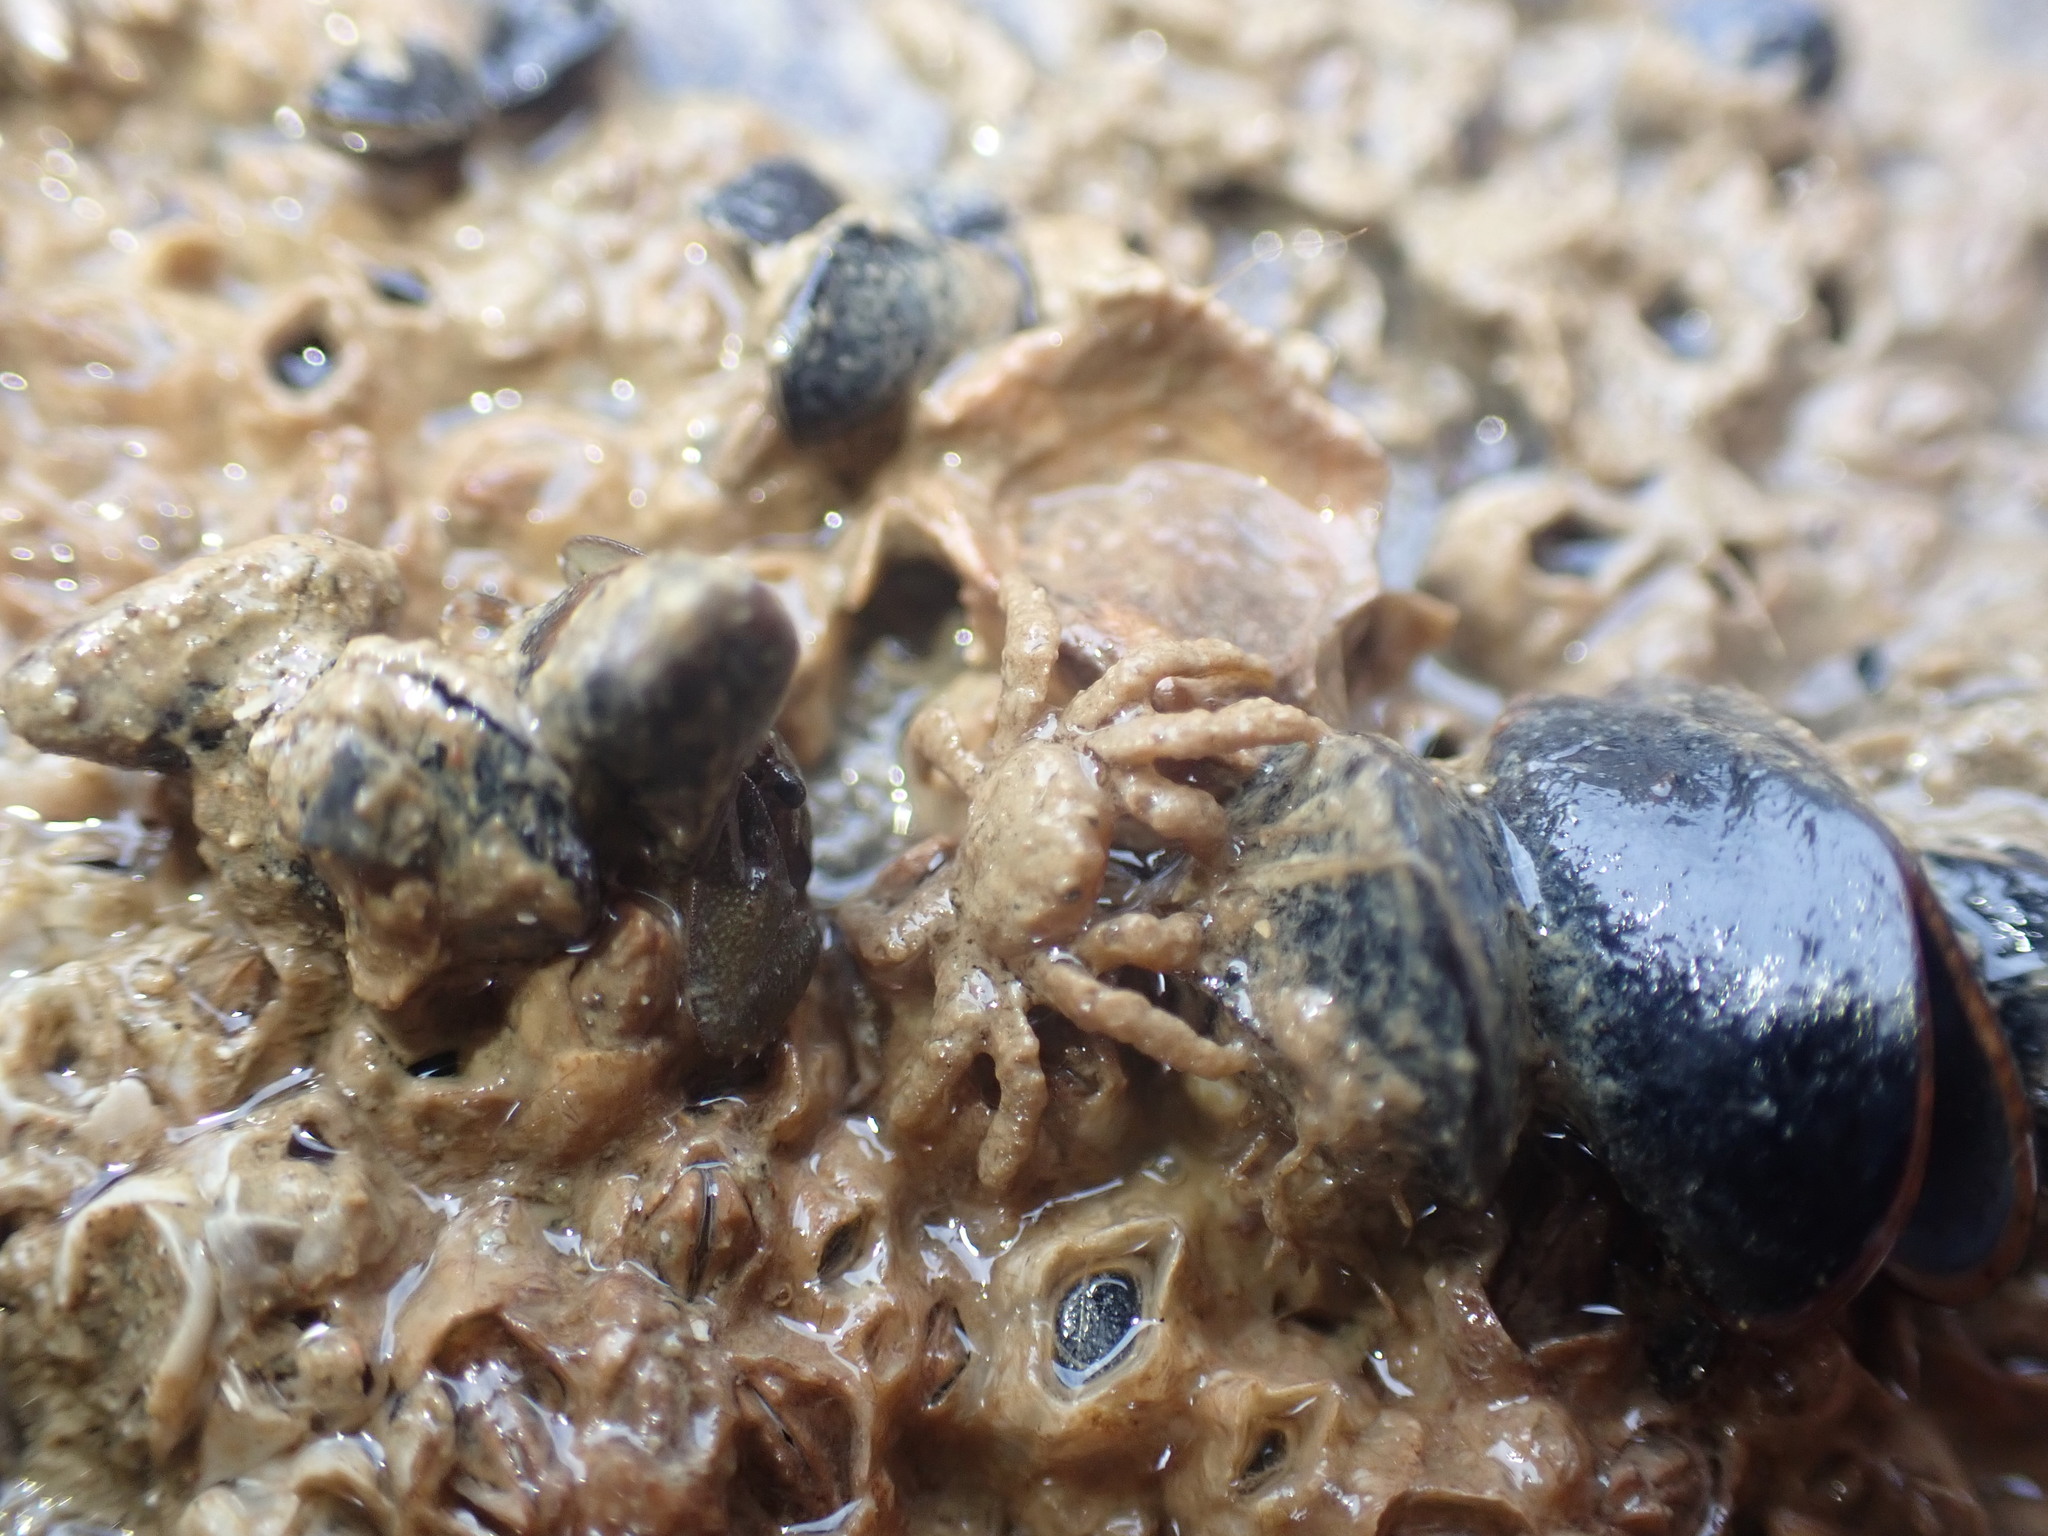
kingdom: Animalia
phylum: Arthropoda
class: Malacostraca
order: Decapoda
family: Hymenosomatidae
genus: Neohymenicus
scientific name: Neohymenicus pubescens
